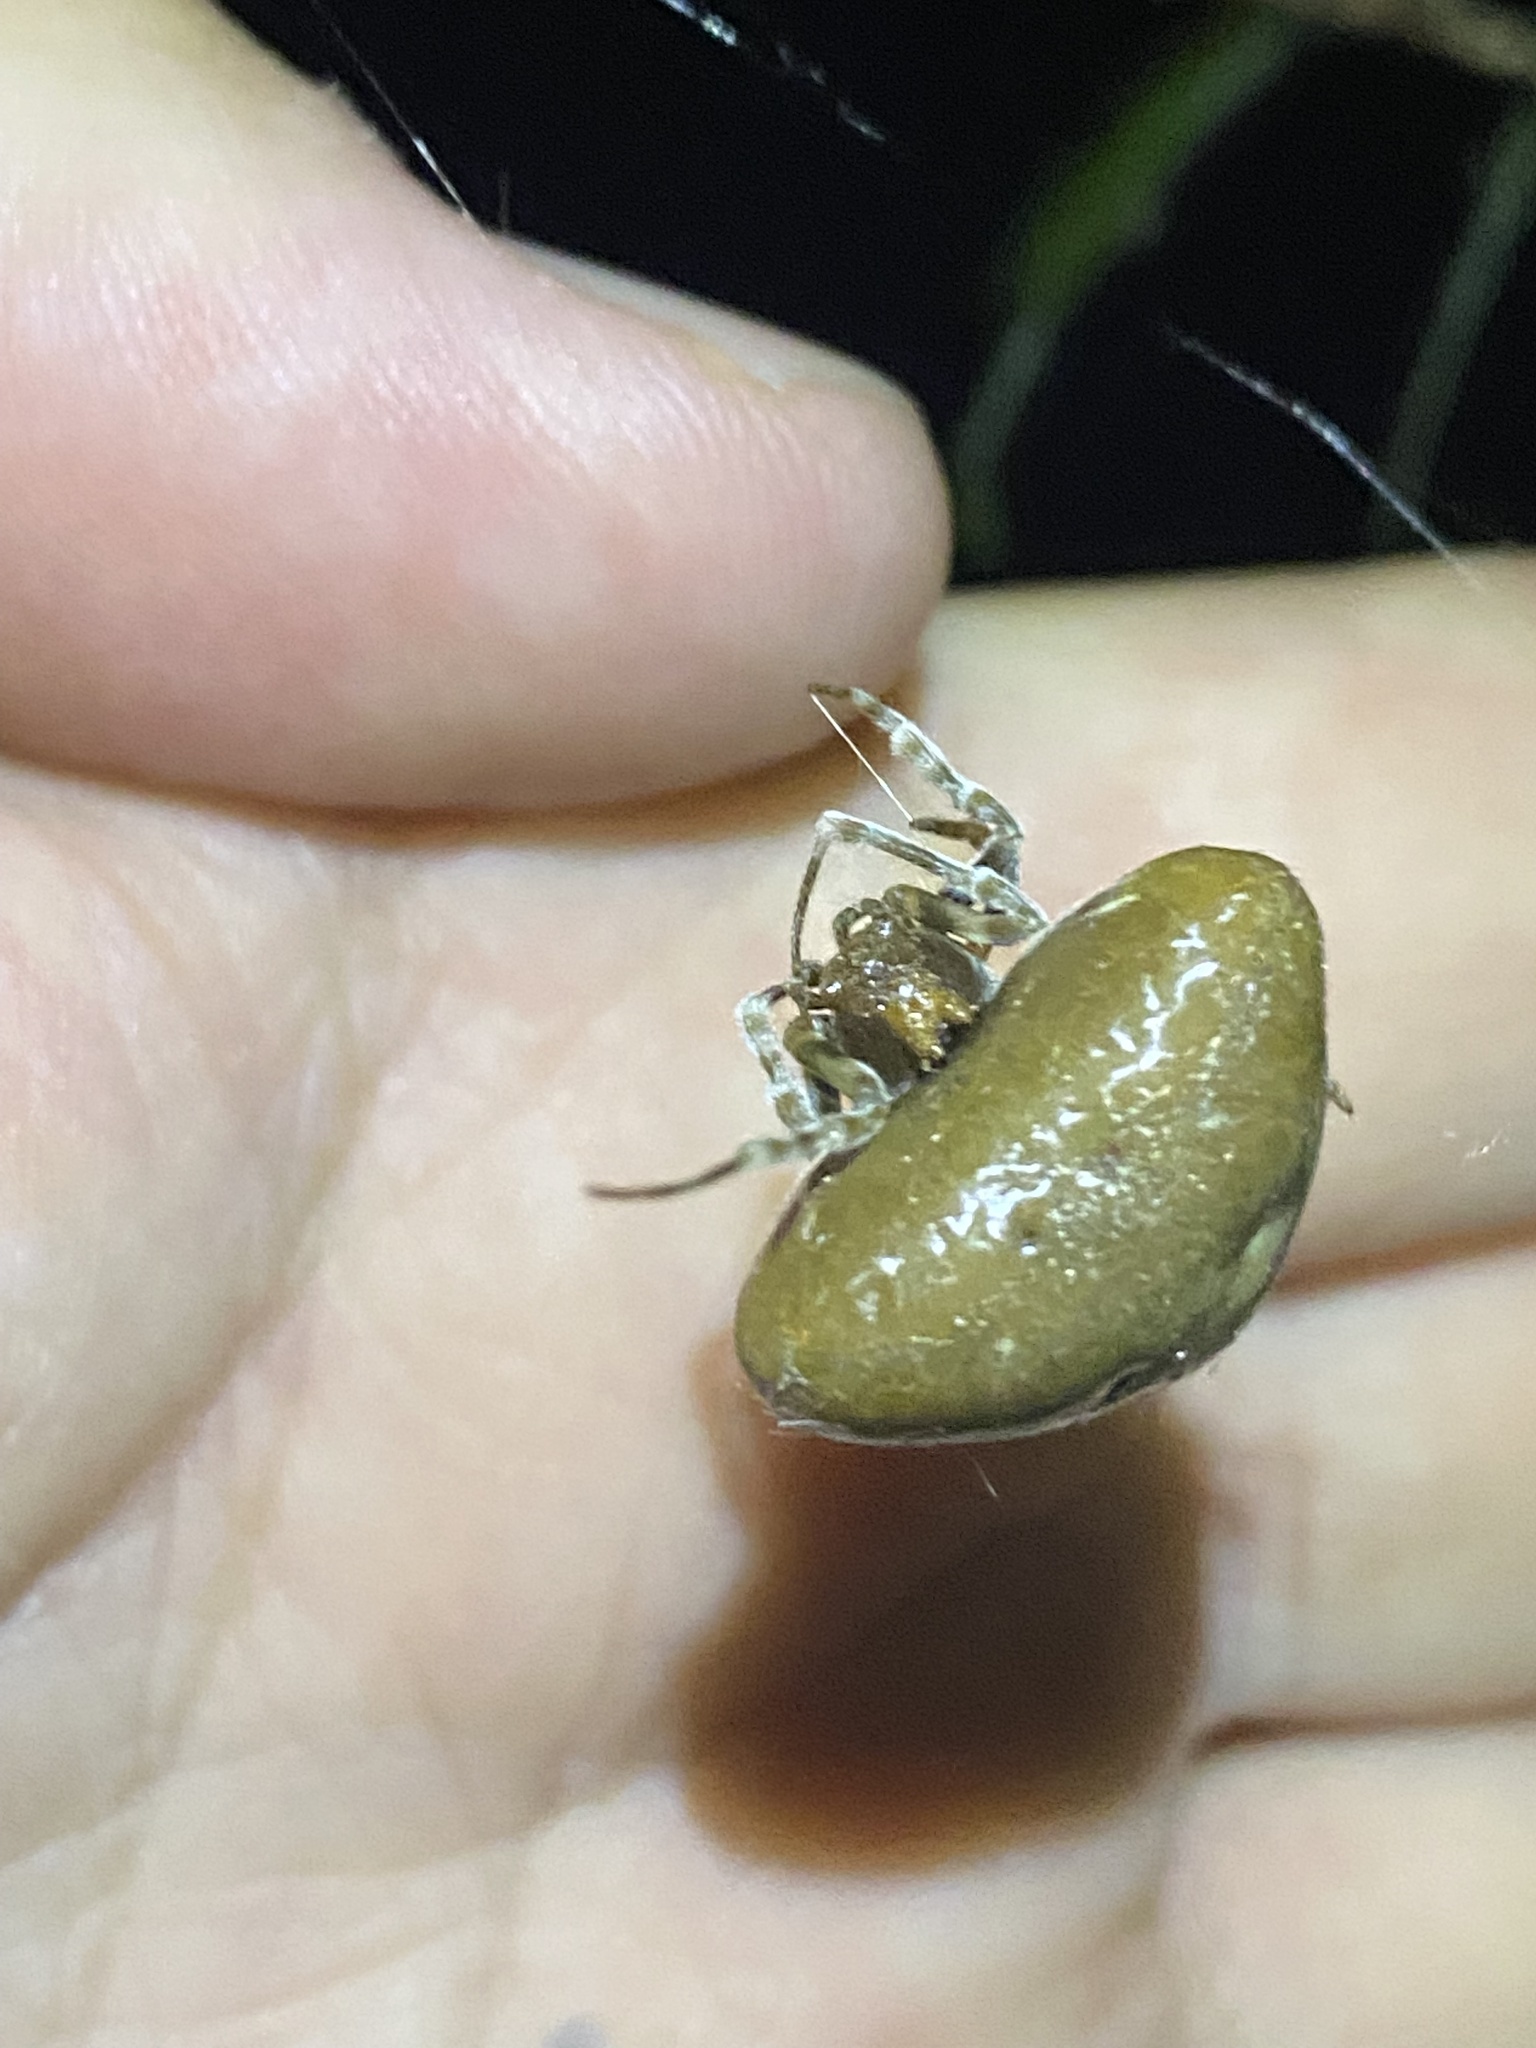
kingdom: Animalia
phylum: Arthropoda
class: Arachnida
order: Araneae
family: Araneidae
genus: Mastophora
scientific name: Mastophora phrynosoma
